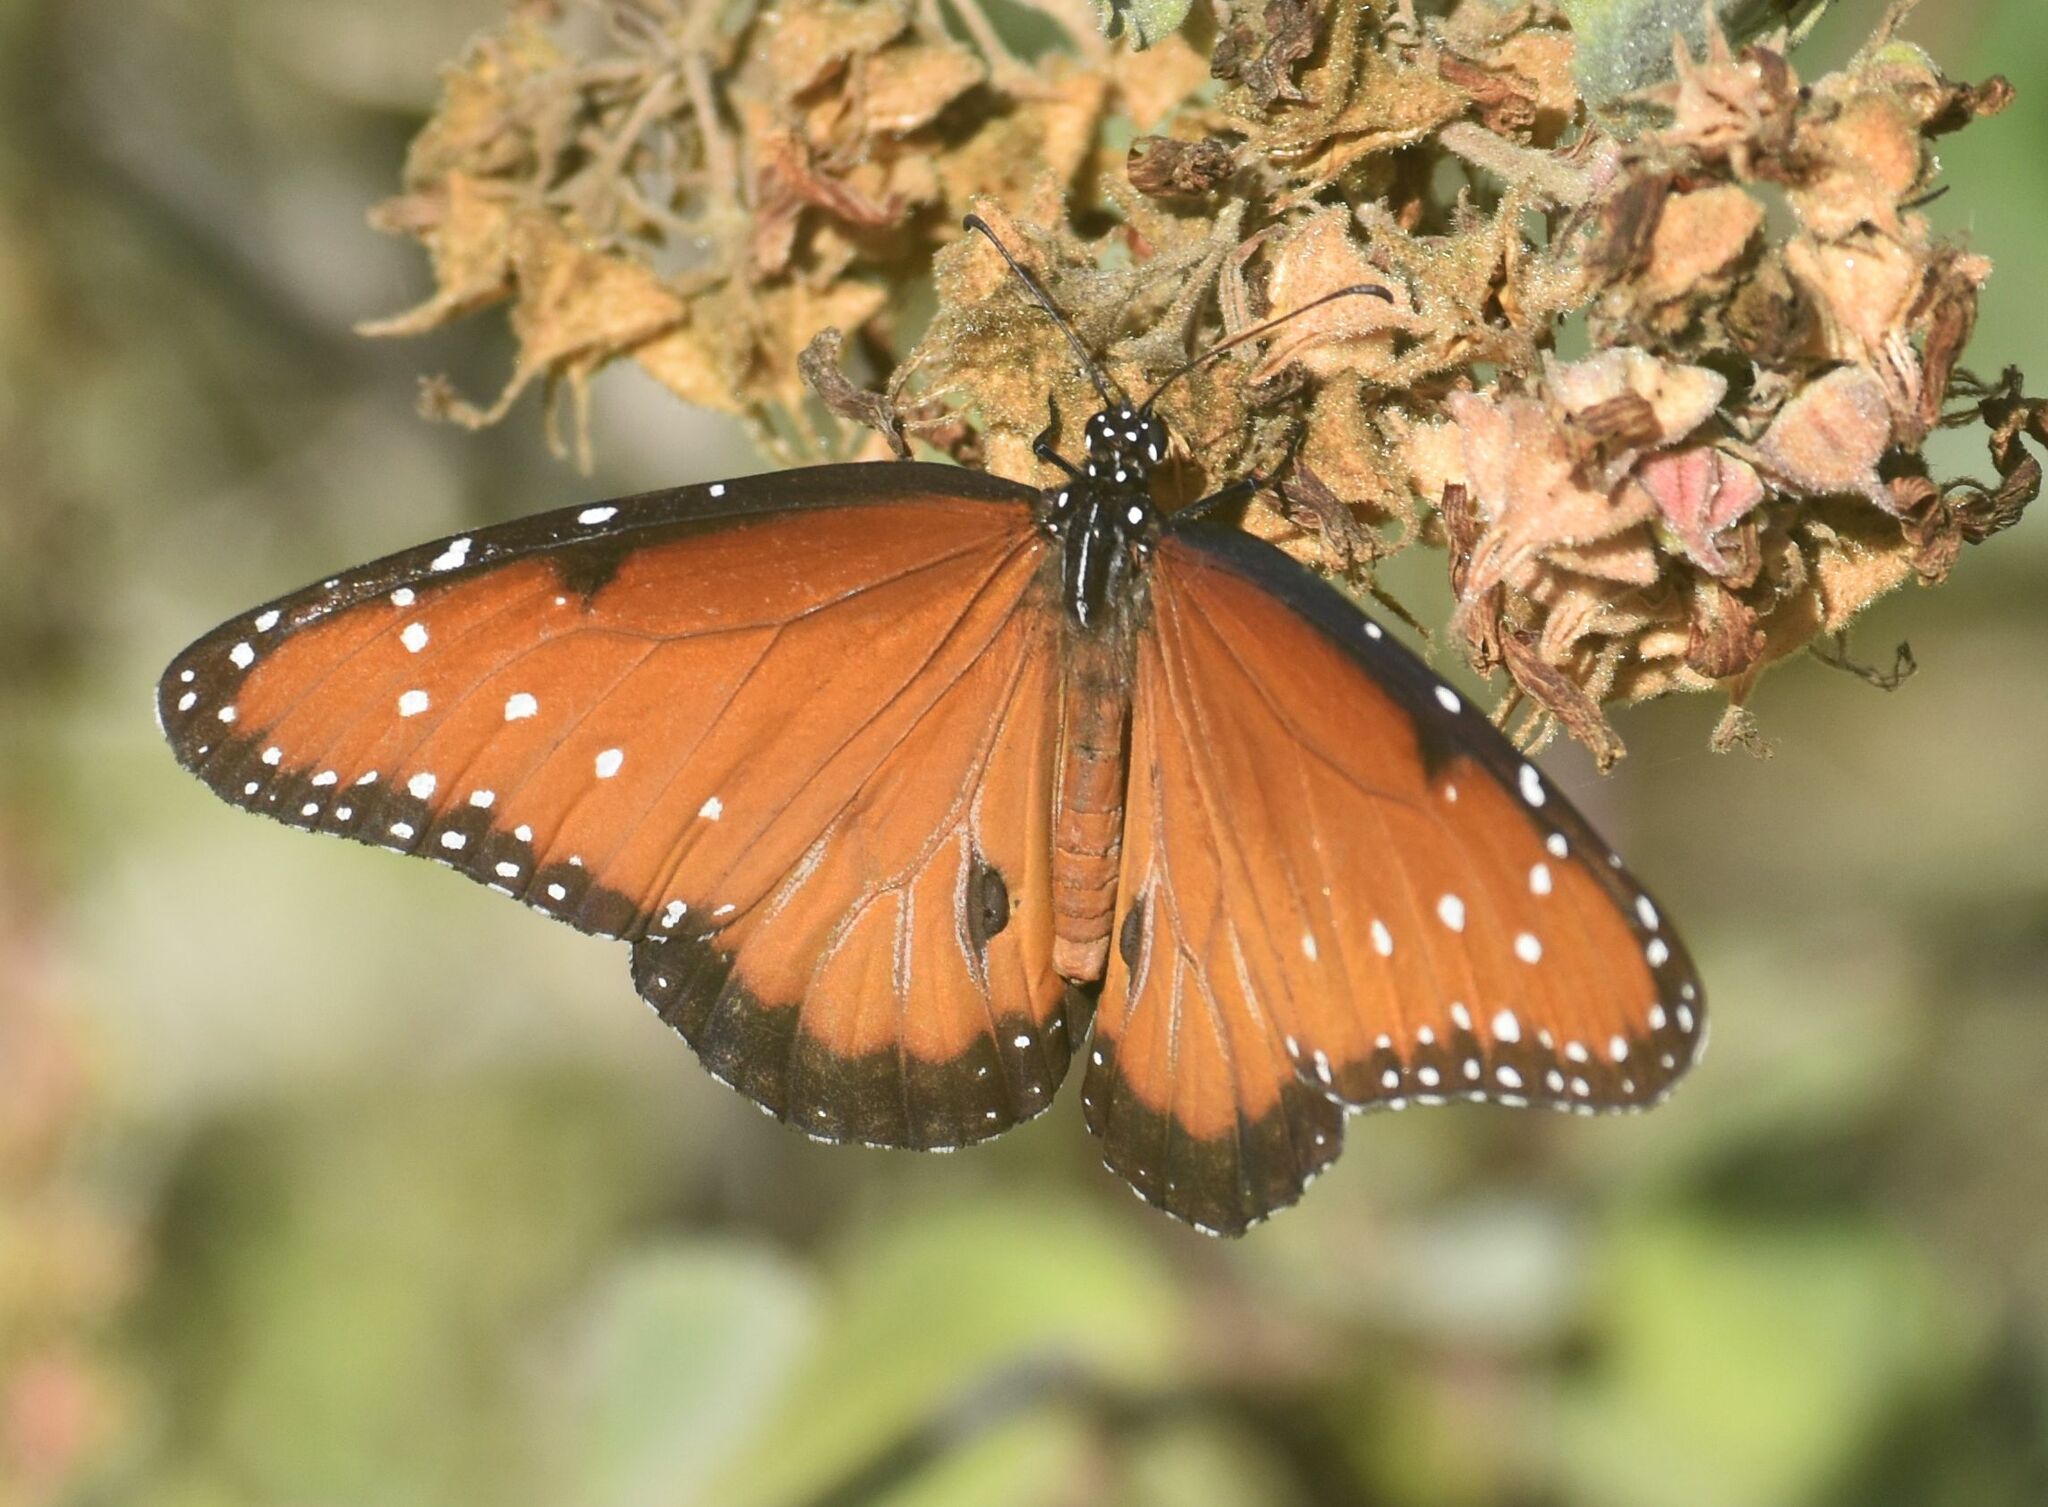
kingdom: Animalia
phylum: Arthropoda
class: Insecta
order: Lepidoptera
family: Nymphalidae
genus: Danaus
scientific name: Danaus gilippus
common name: Queen
